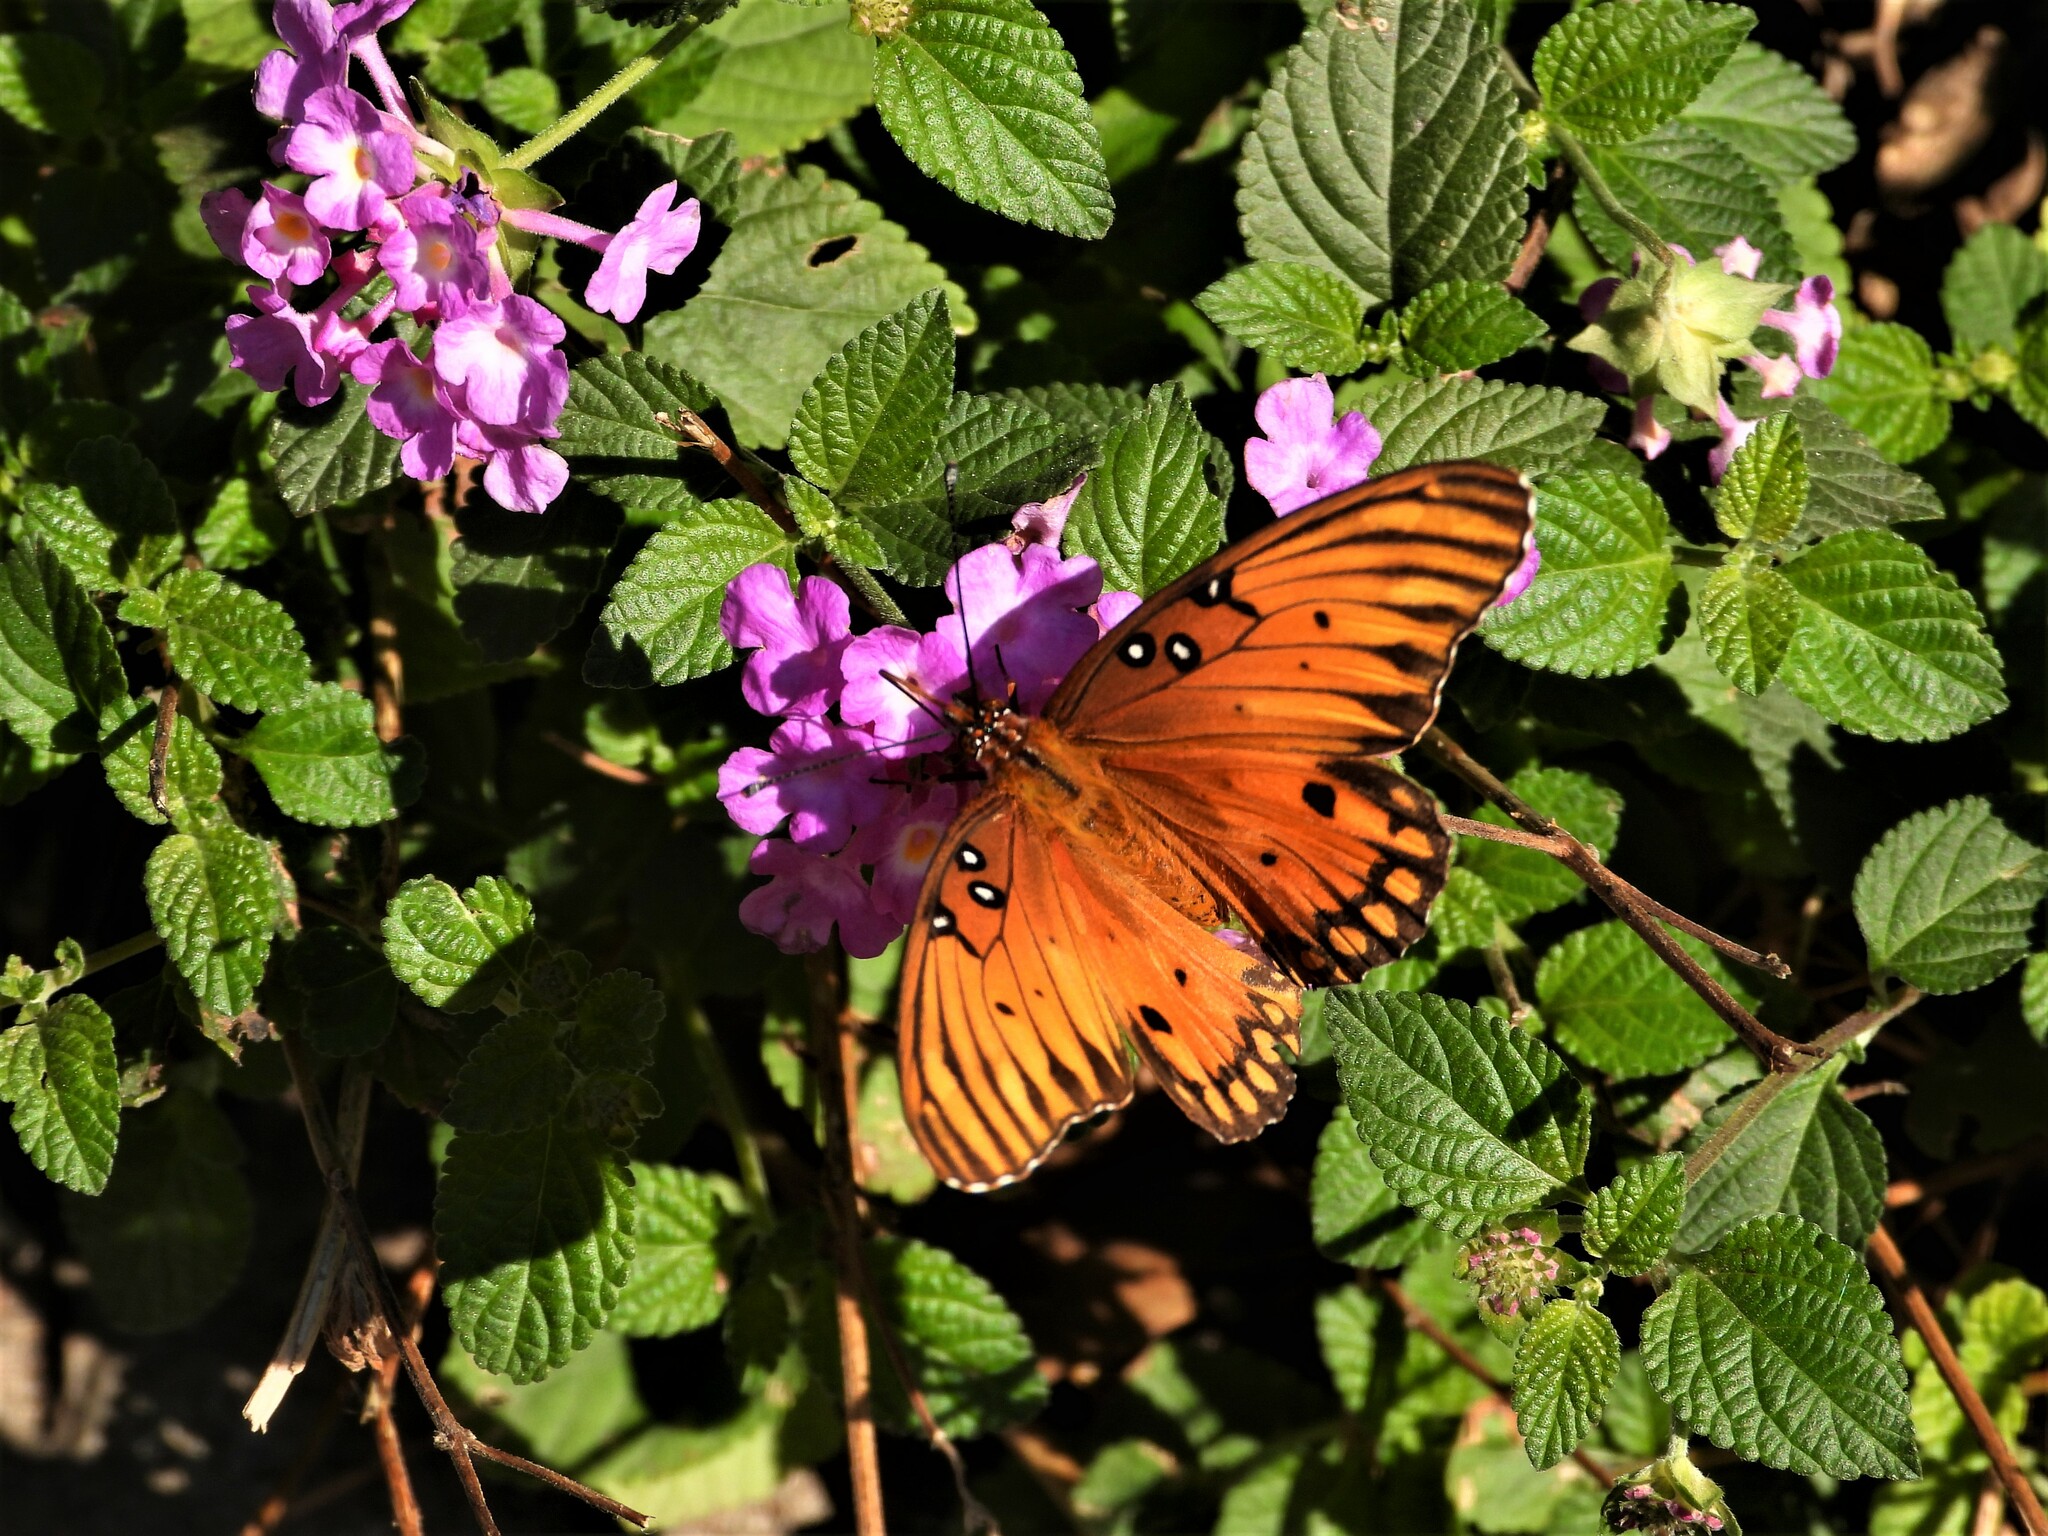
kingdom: Animalia
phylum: Arthropoda
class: Insecta
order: Lepidoptera
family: Nymphalidae
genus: Dione
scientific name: Dione vanillae
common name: Gulf fritillary
